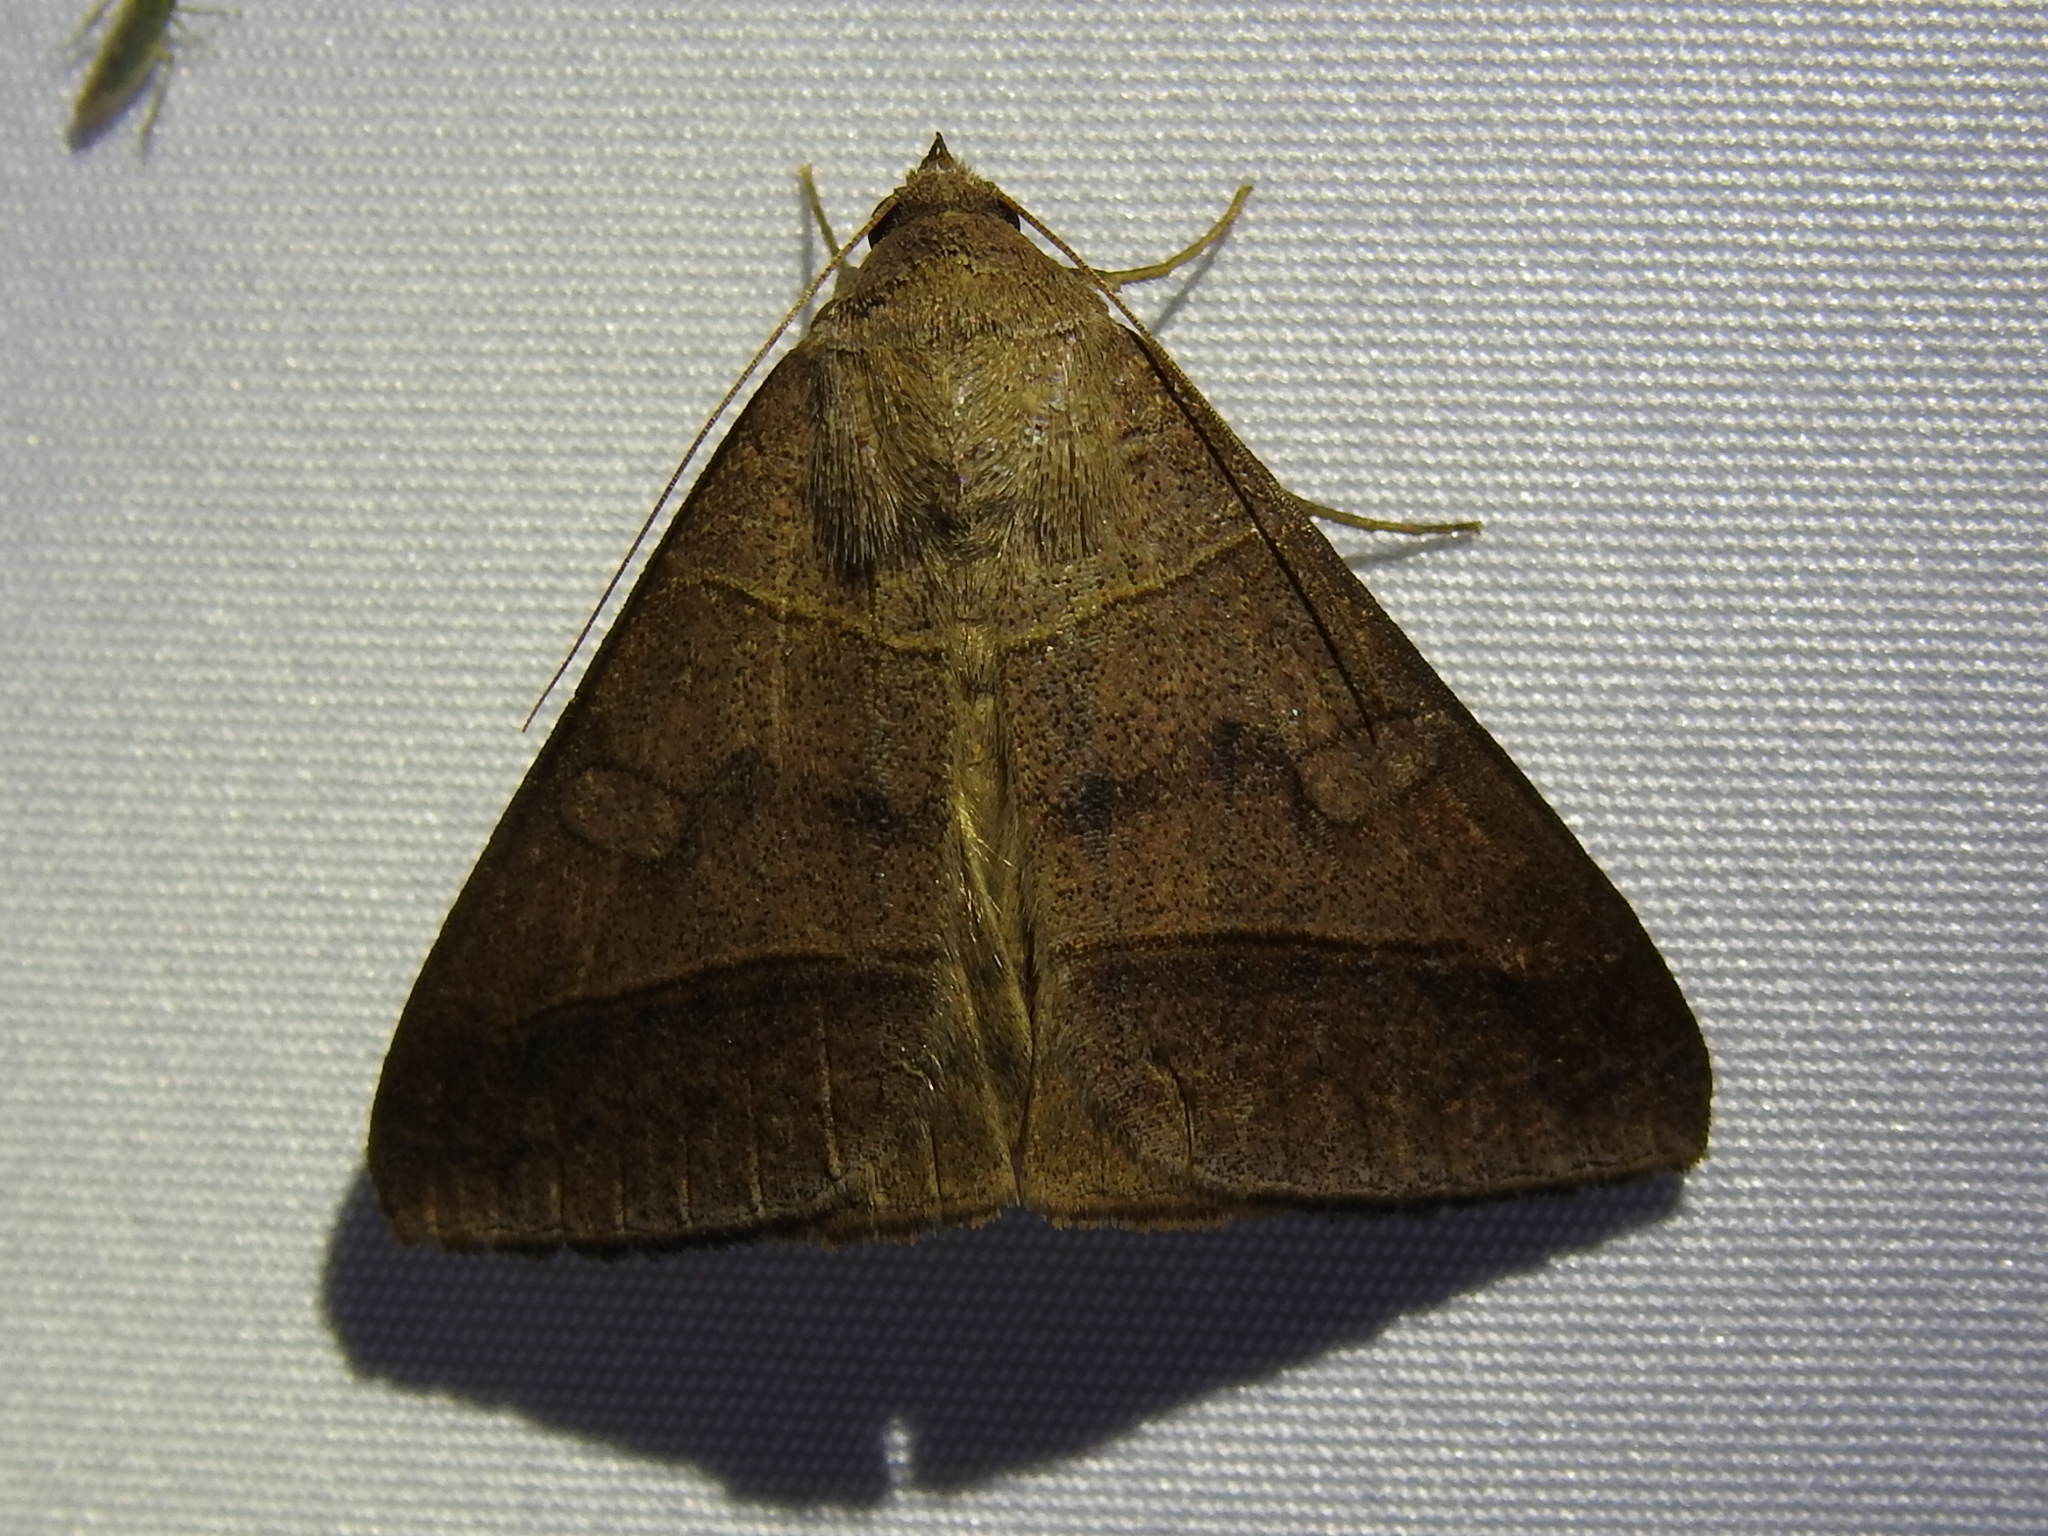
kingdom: Animalia
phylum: Arthropoda
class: Insecta
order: Lepidoptera
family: Erebidae
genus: Mocis
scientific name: Mocis texana
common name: Texas mocis moth
